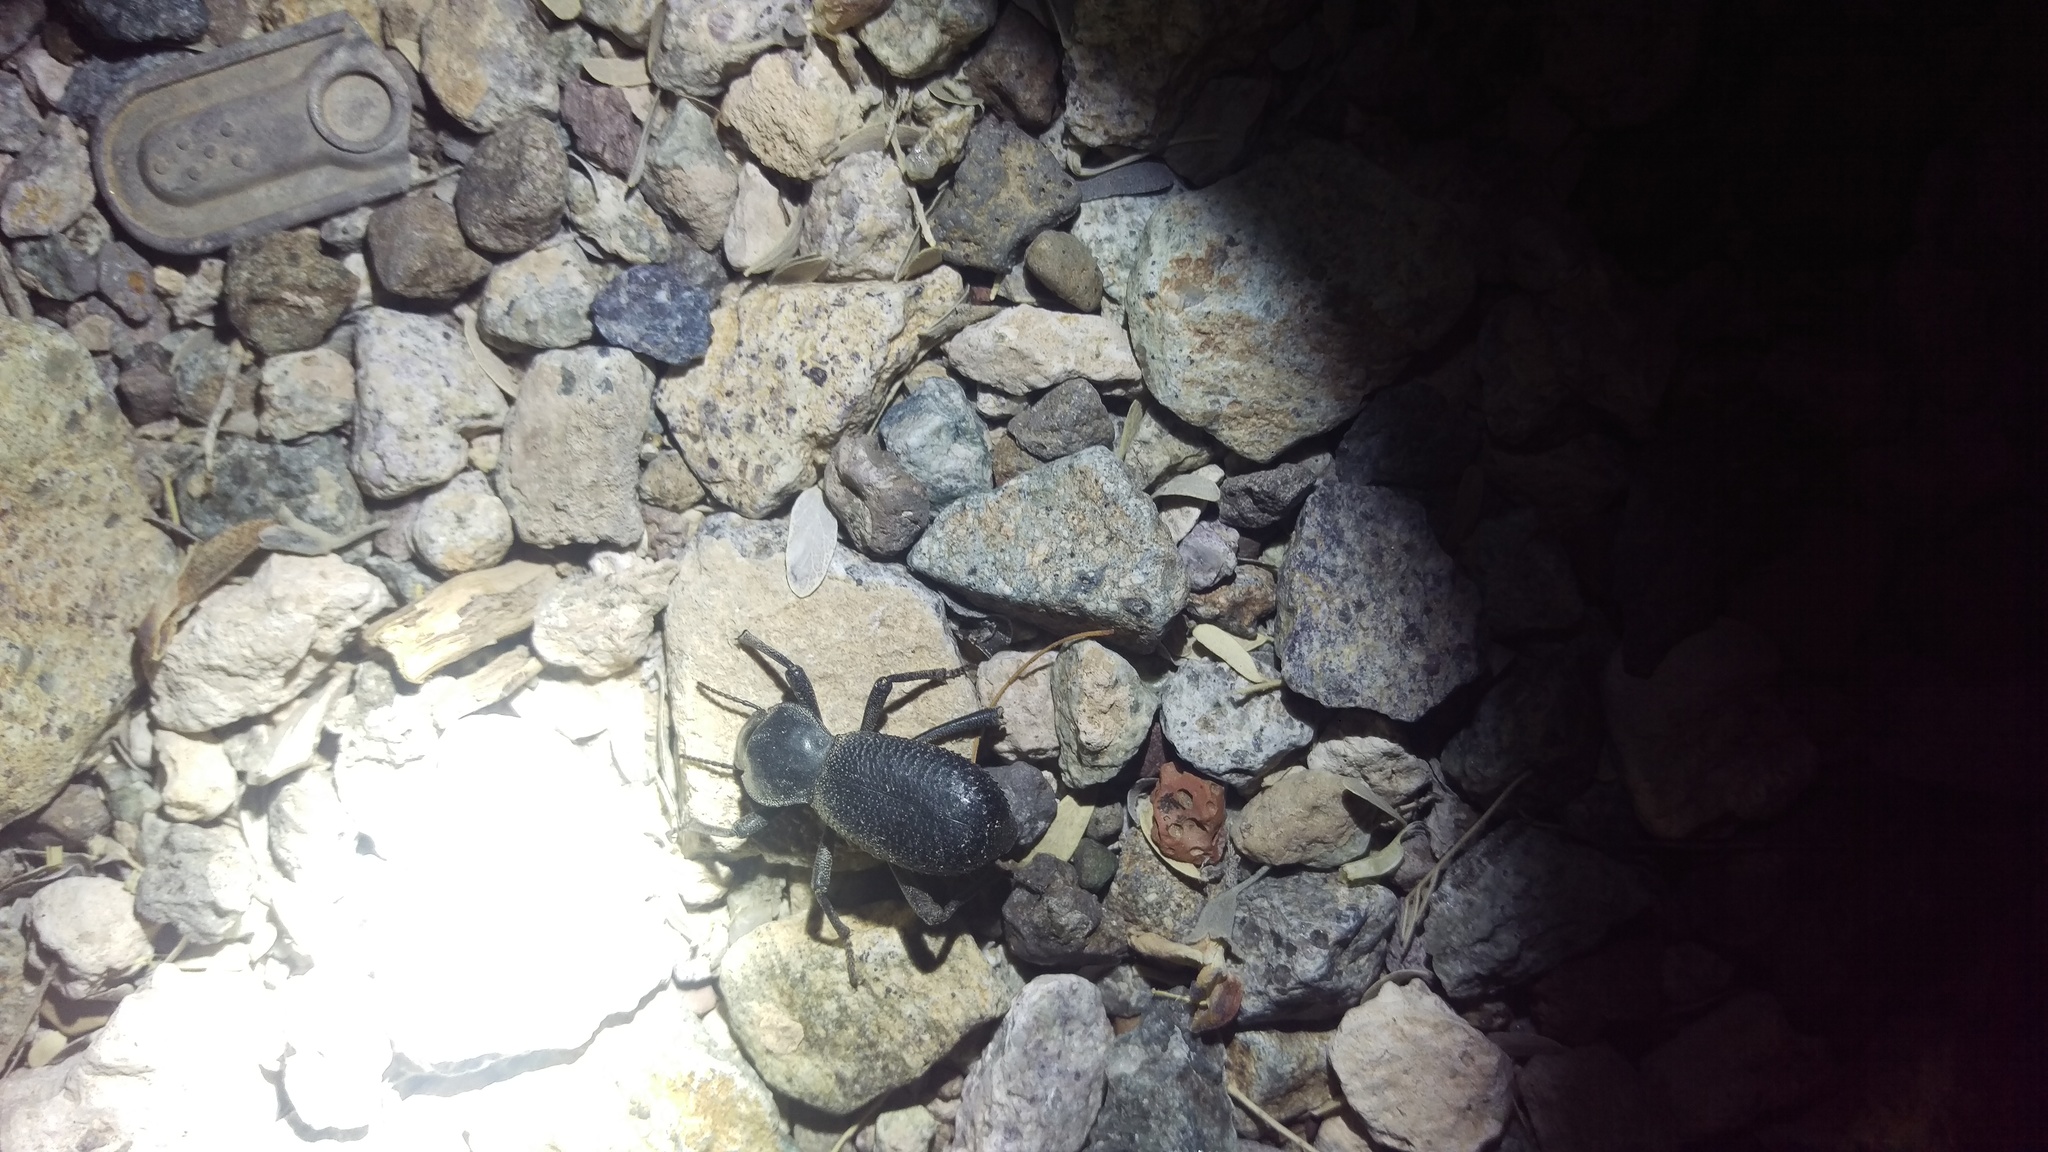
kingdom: Animalia
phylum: Arthropoda
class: Insecta
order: Coleoptera
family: Tenebrionidae
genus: Cryptoglossa
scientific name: Cryptoglossa muricata
